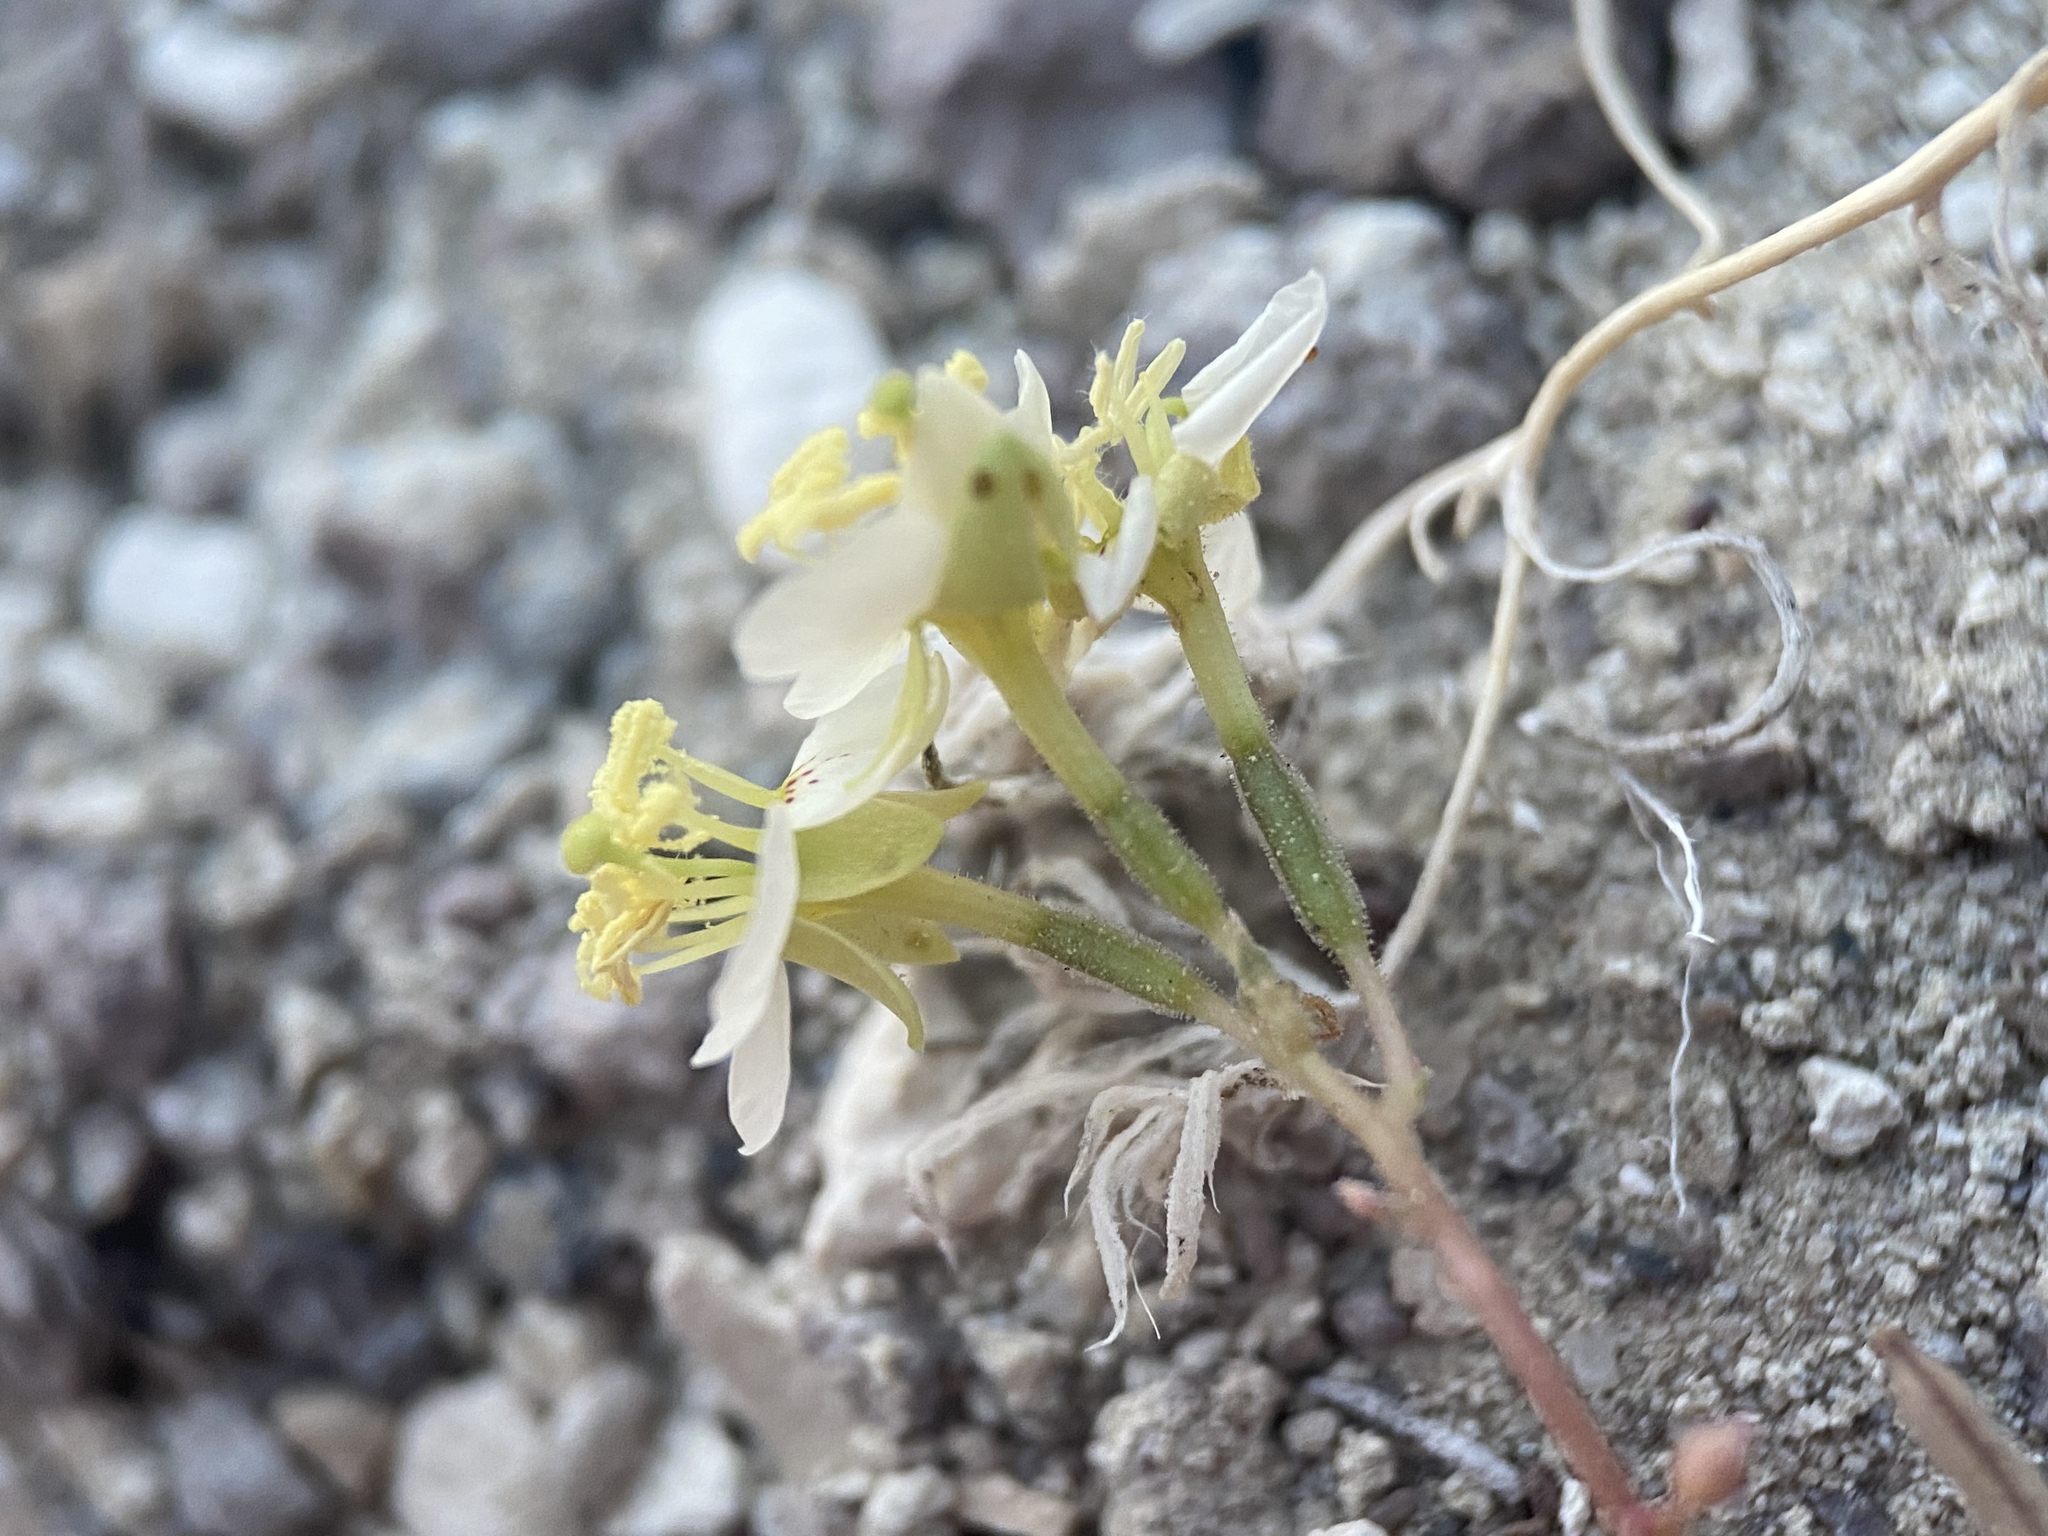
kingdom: Plantae
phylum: Tracheophyta
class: Magnoliopsida
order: Myrtales
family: Onagraceae
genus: Chylismia
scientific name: Chylismia claviformis
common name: Browneyes
